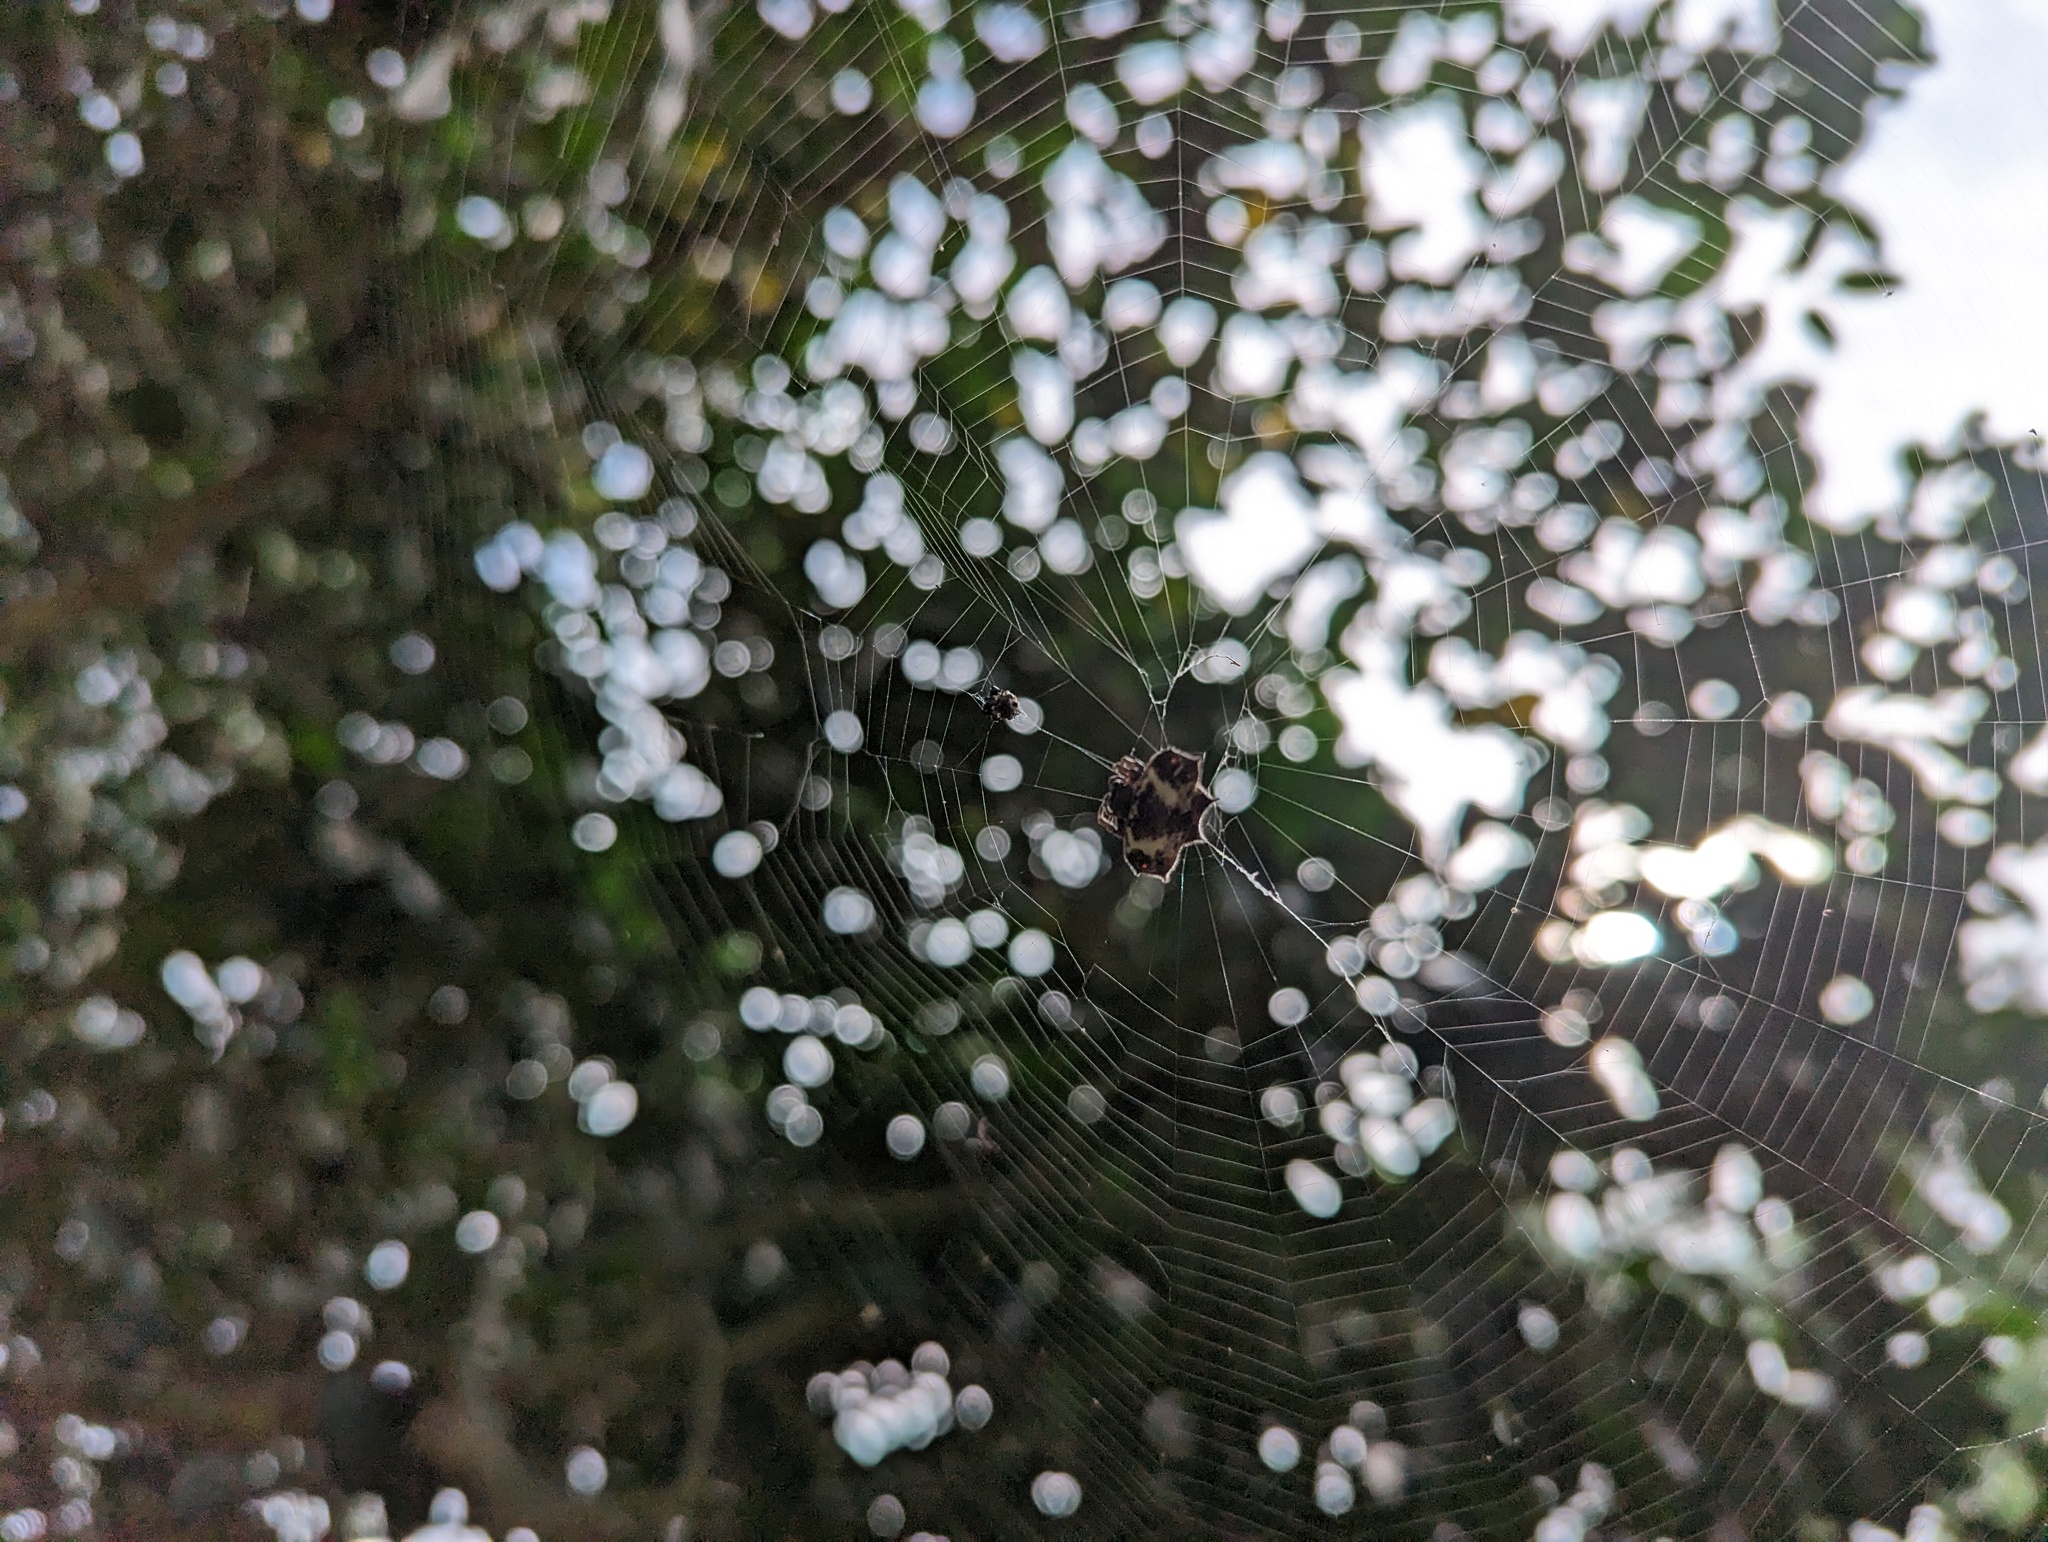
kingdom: Animalia
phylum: Arthropoda
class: Arachnida
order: Araneae
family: Araneidae
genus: Gasteracantha
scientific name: Gasteracantha cancriformis
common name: Orb weavers
